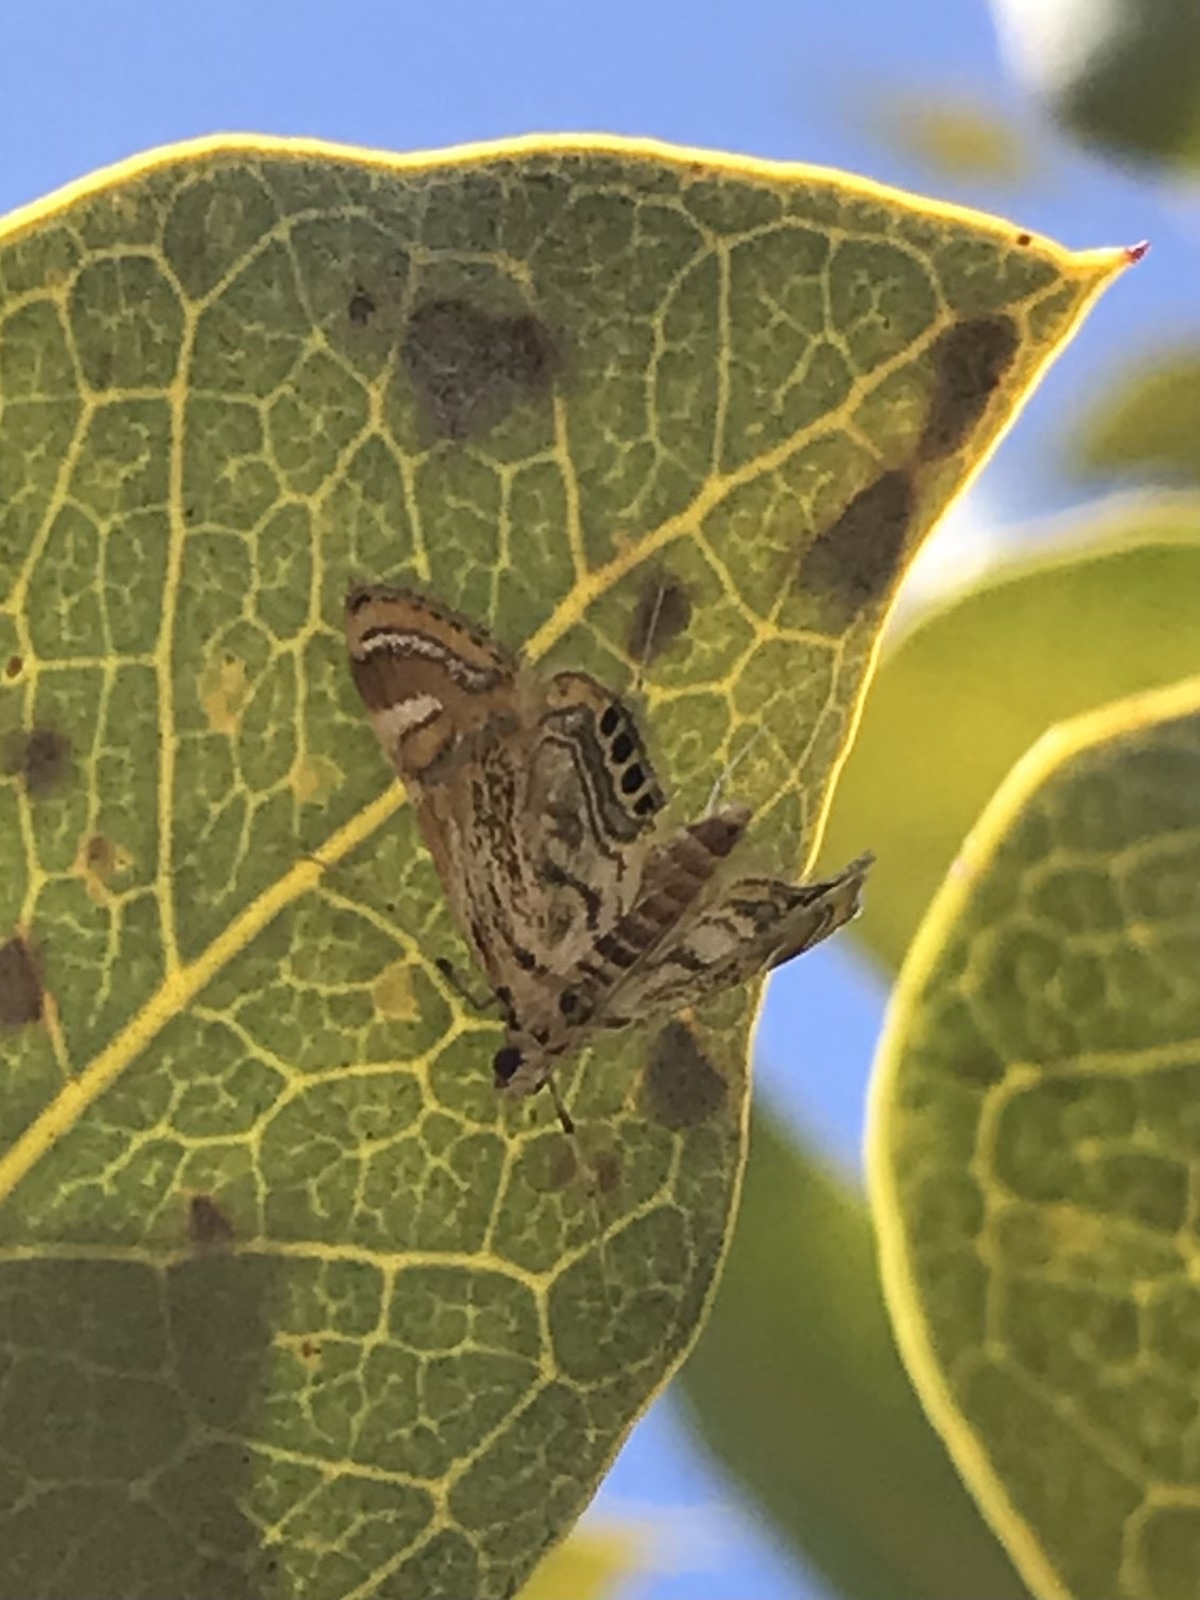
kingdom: Animalia
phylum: Arthropoda
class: Insecta
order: Lepidoptera
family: Crambidae
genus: Cataclysta
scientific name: Cataclysta lampetialis
